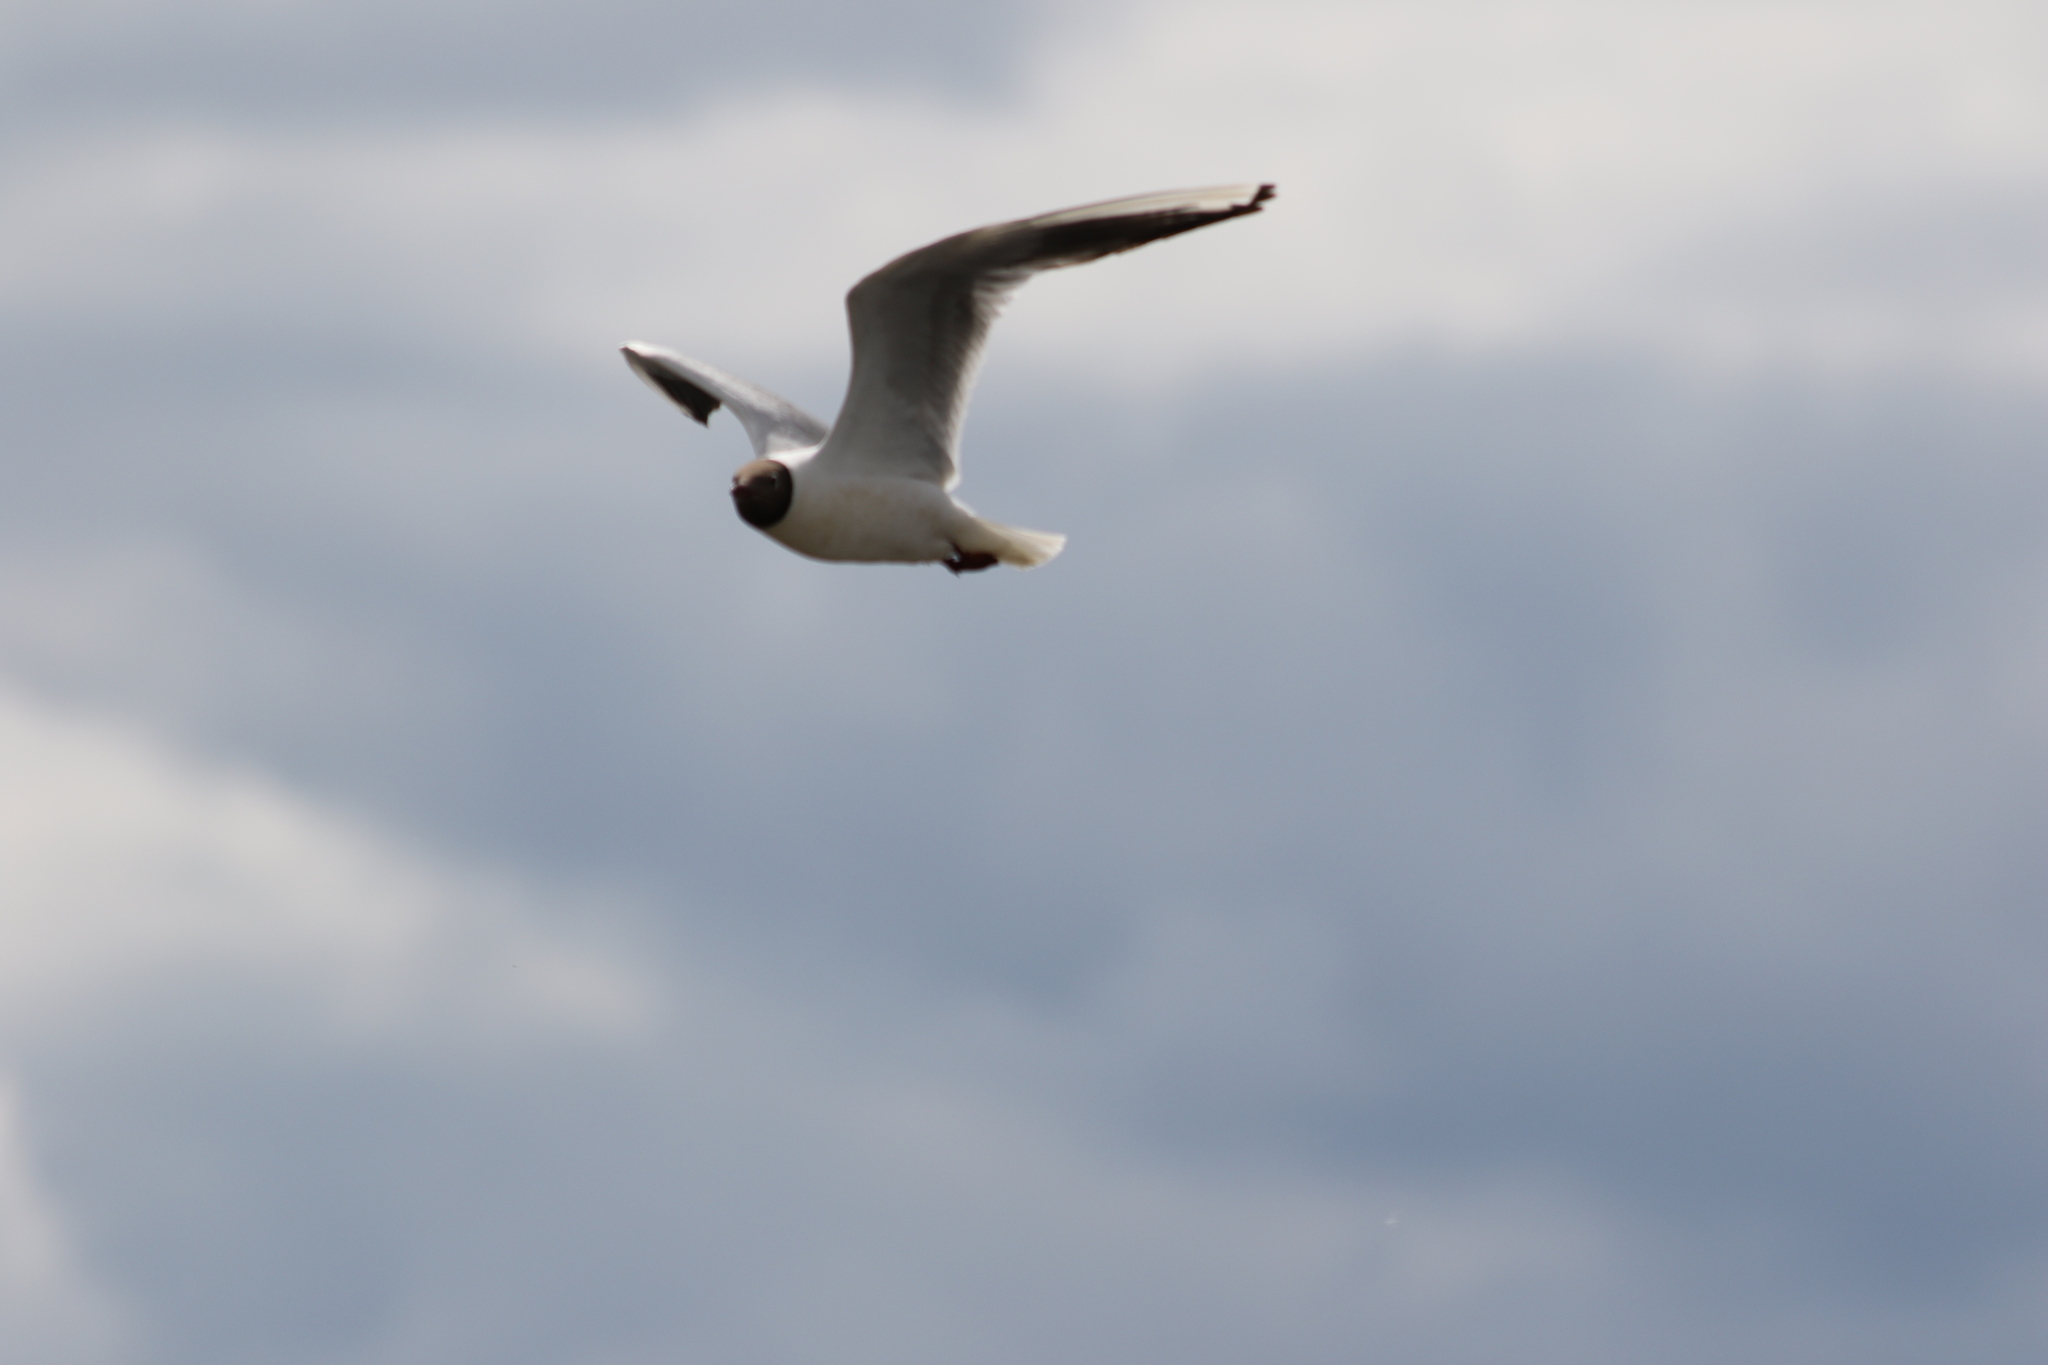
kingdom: Animalia
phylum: Chordata
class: Aves
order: Charadriiformes
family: Laridae
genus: Chroicocephalus
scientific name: Chroicocephalus ridibundus
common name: Black-headed gull
